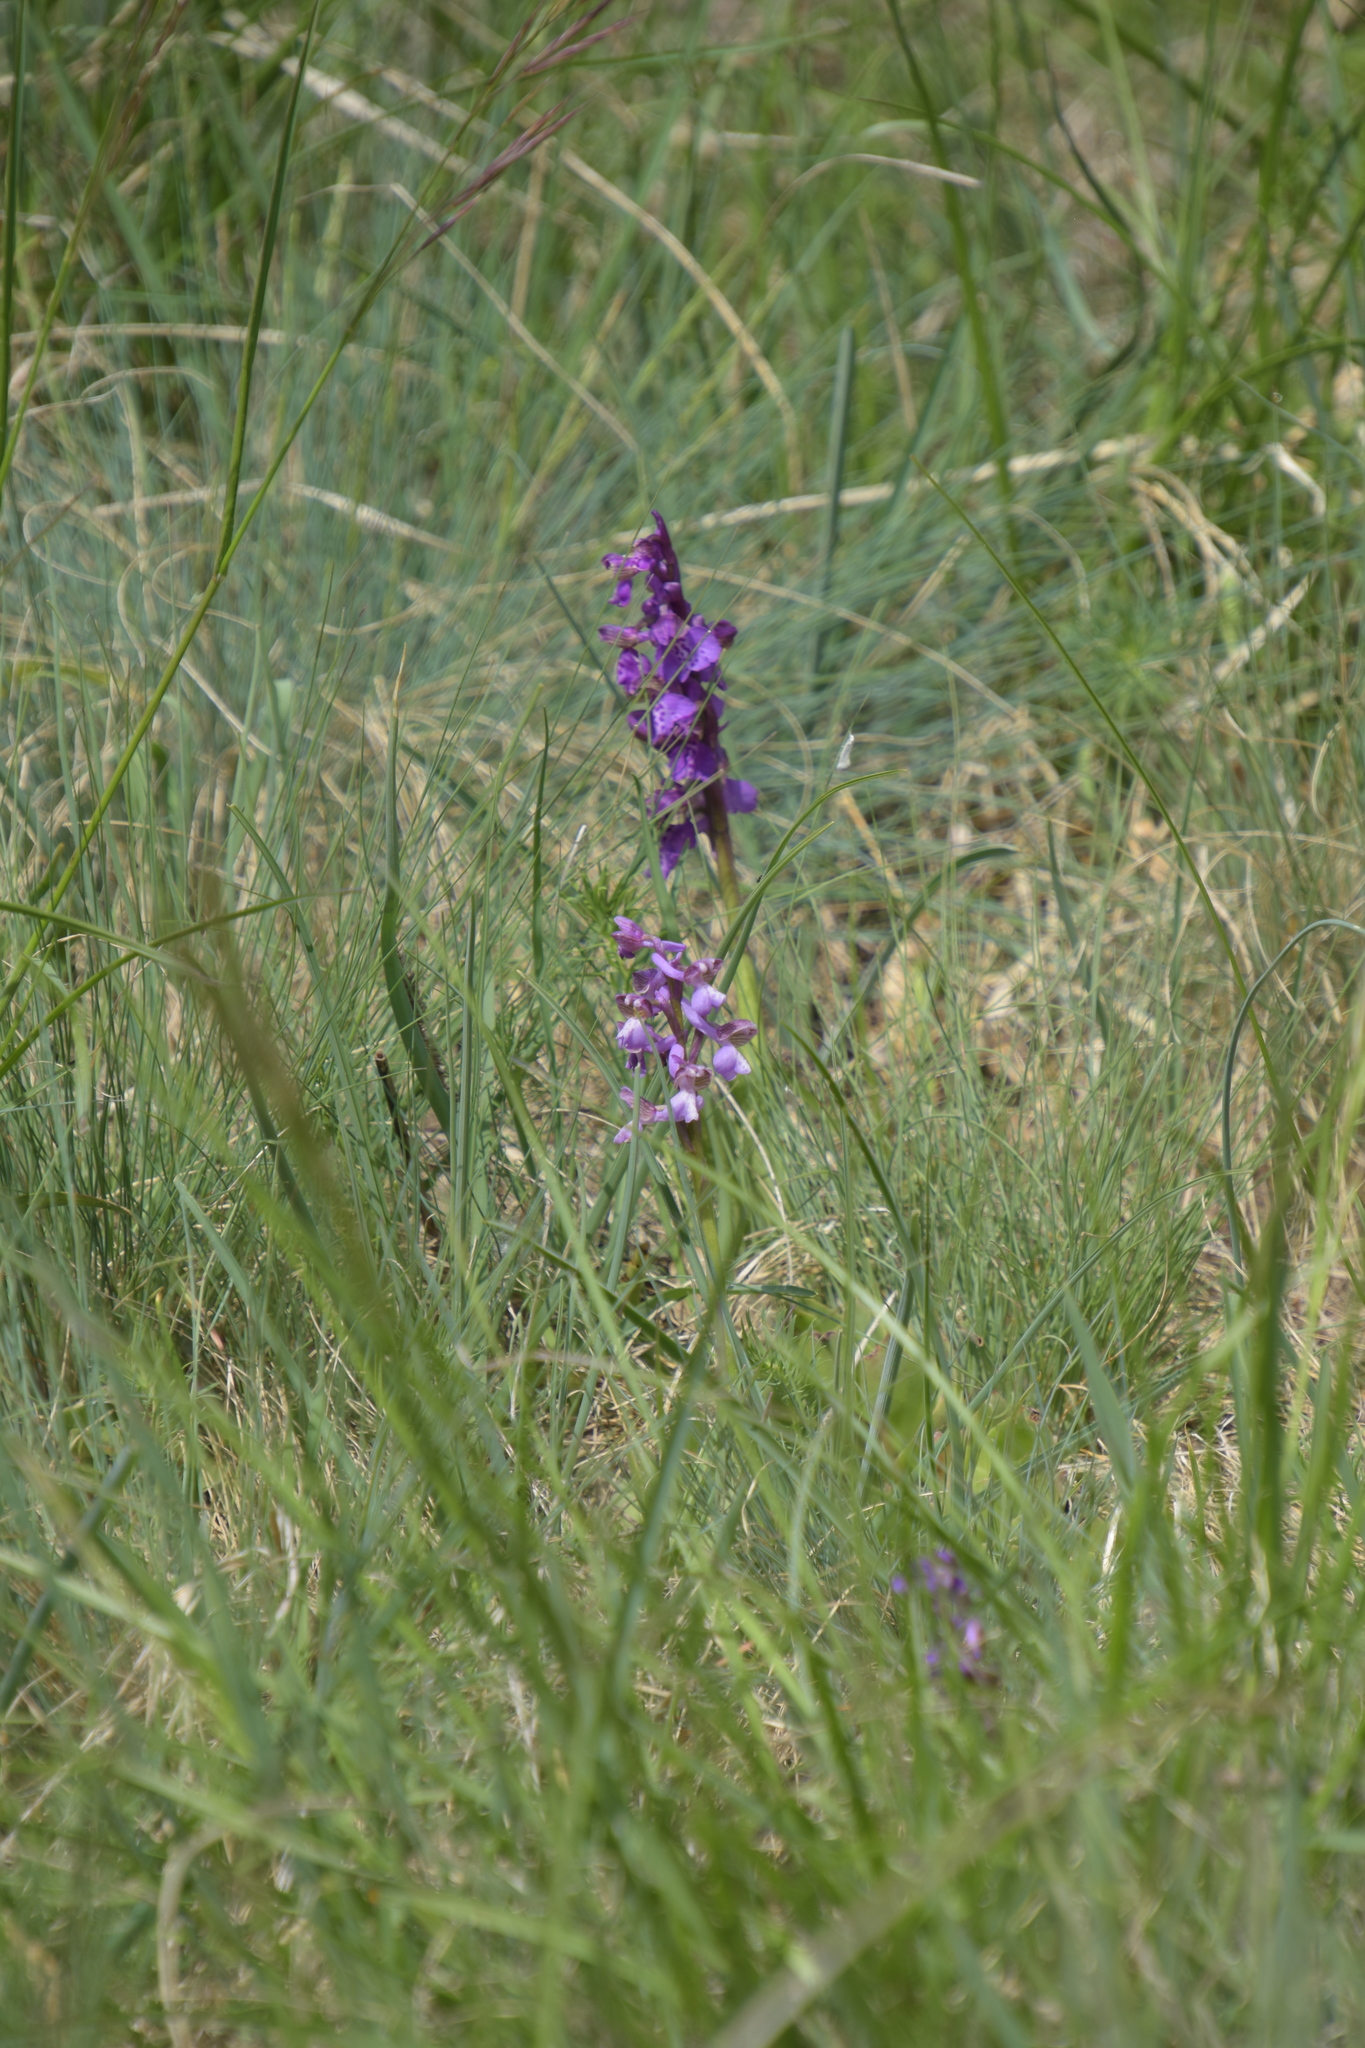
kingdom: Plantae
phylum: Tracheophyta
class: Liliopsida
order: Asparagales
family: Orchidaceae
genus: Anacamptis
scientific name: Anacamptis morio
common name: Green-winged orchid
